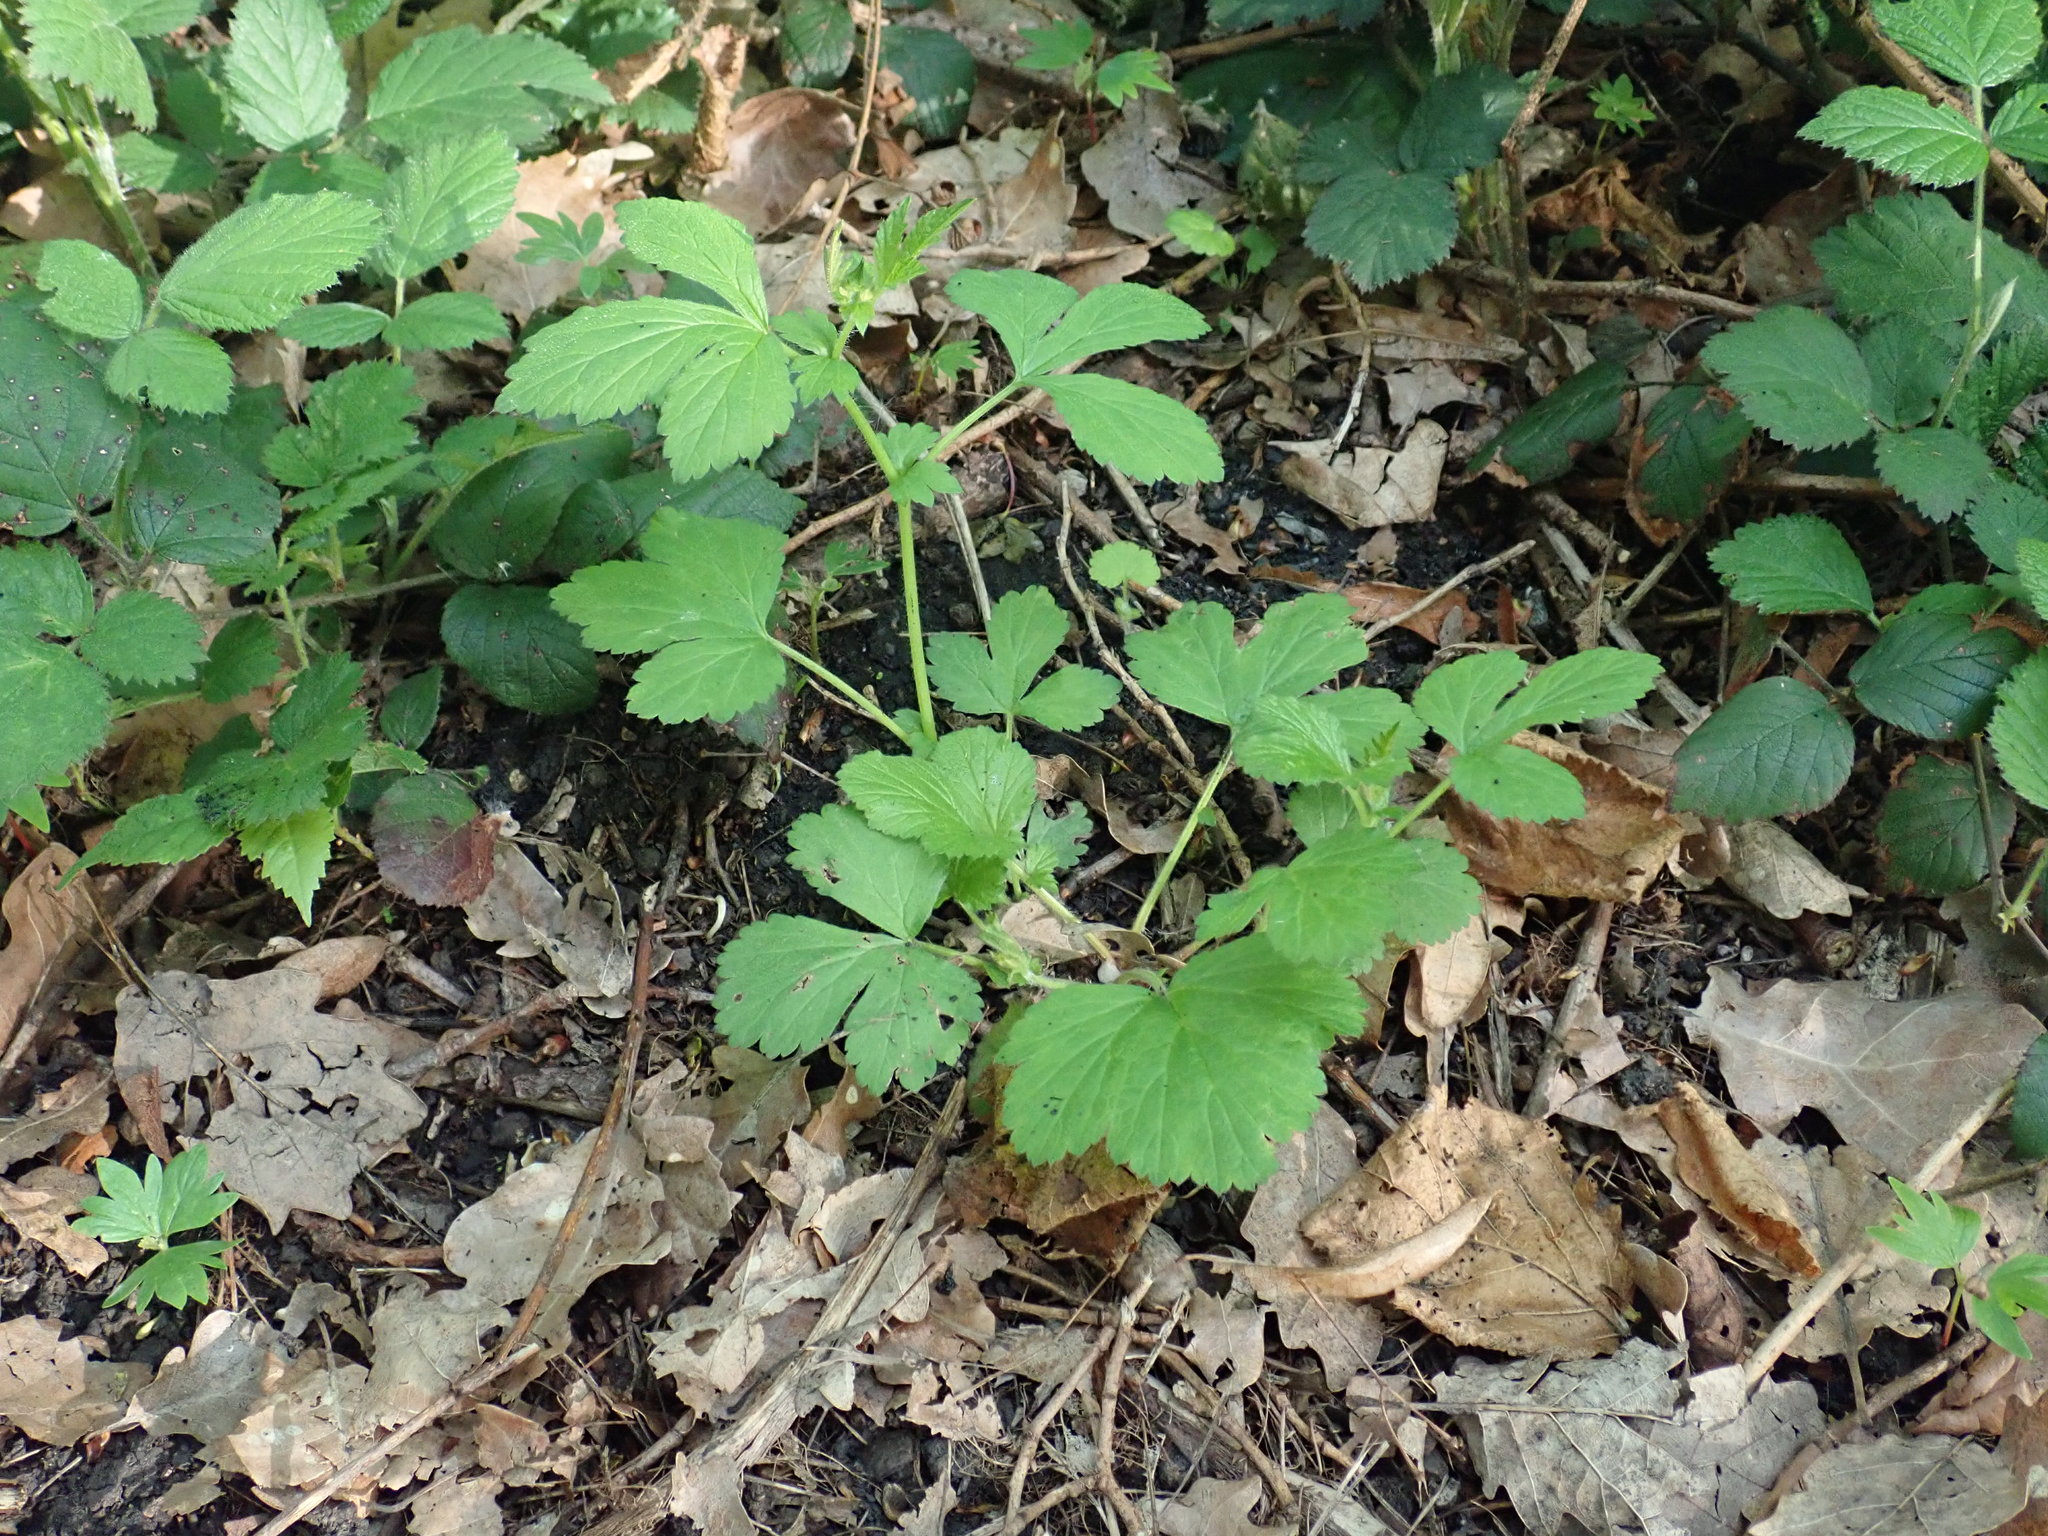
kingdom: Plantae
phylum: Tracheophyta
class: Magnoliopsida
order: Rosales
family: Rosaceae
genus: Geum
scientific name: Geum urbanum
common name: Wood avens
